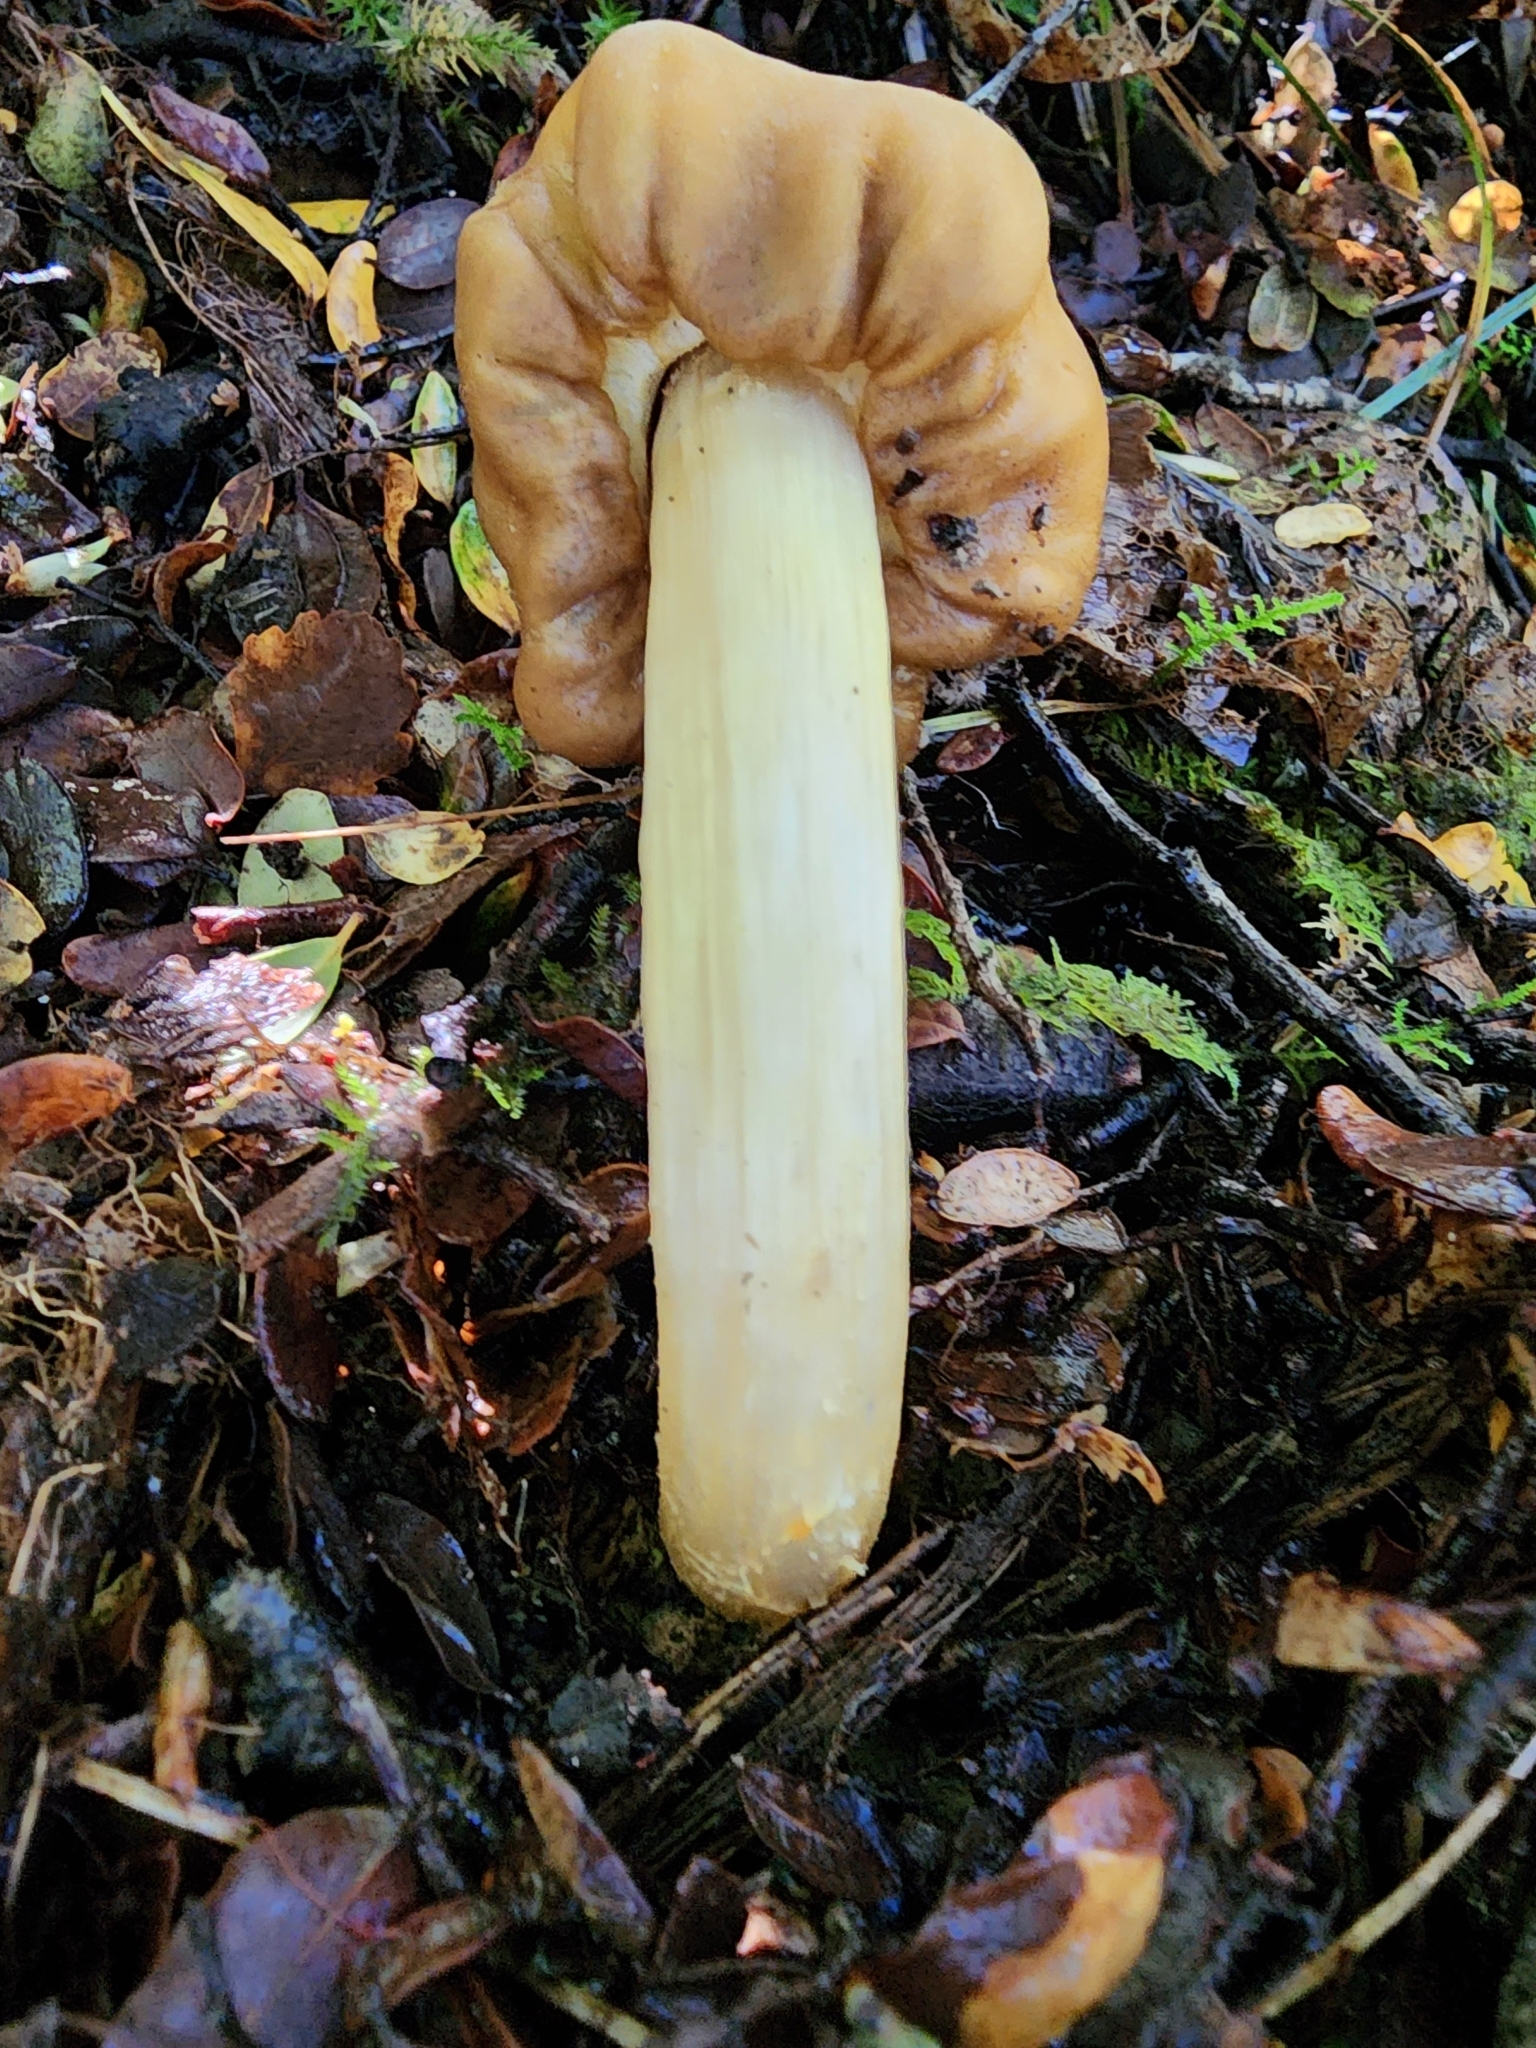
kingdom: Fungi
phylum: Basidiomycota
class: Agaricomycetes
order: Agaricales
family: Cortinariaceae
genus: Cortinarius
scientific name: Cortinarius epiphaeus
